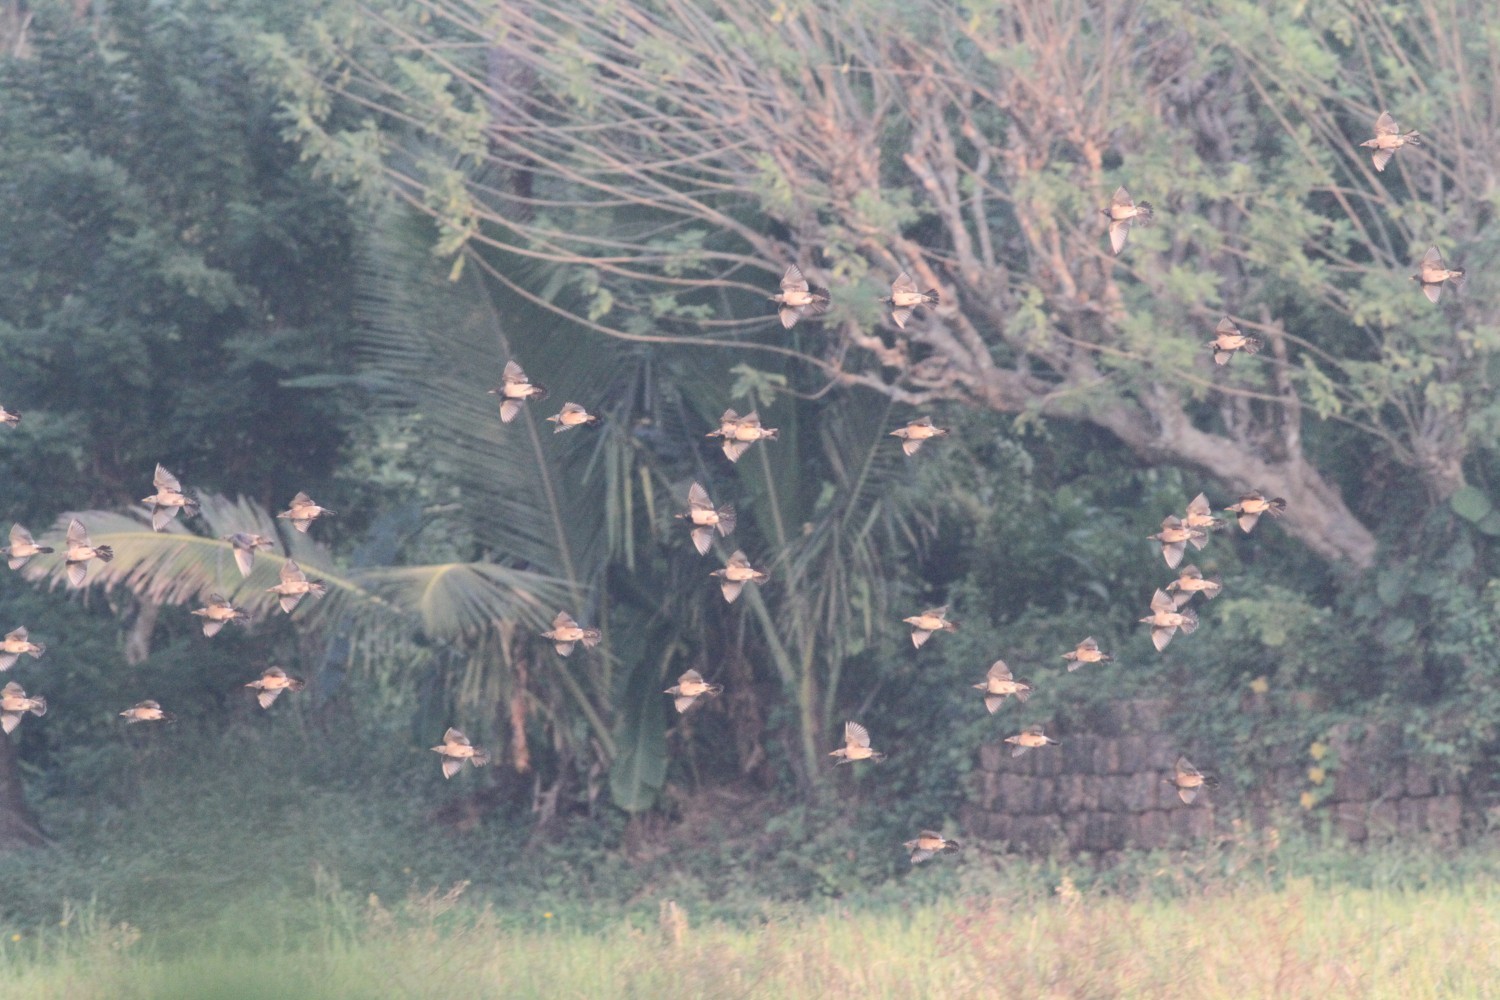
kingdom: Animalia
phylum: Chordata
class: Aves
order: Passeriformes
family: Sturnidae
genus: Pastor
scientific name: Pastor roseus
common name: Rosy starling
